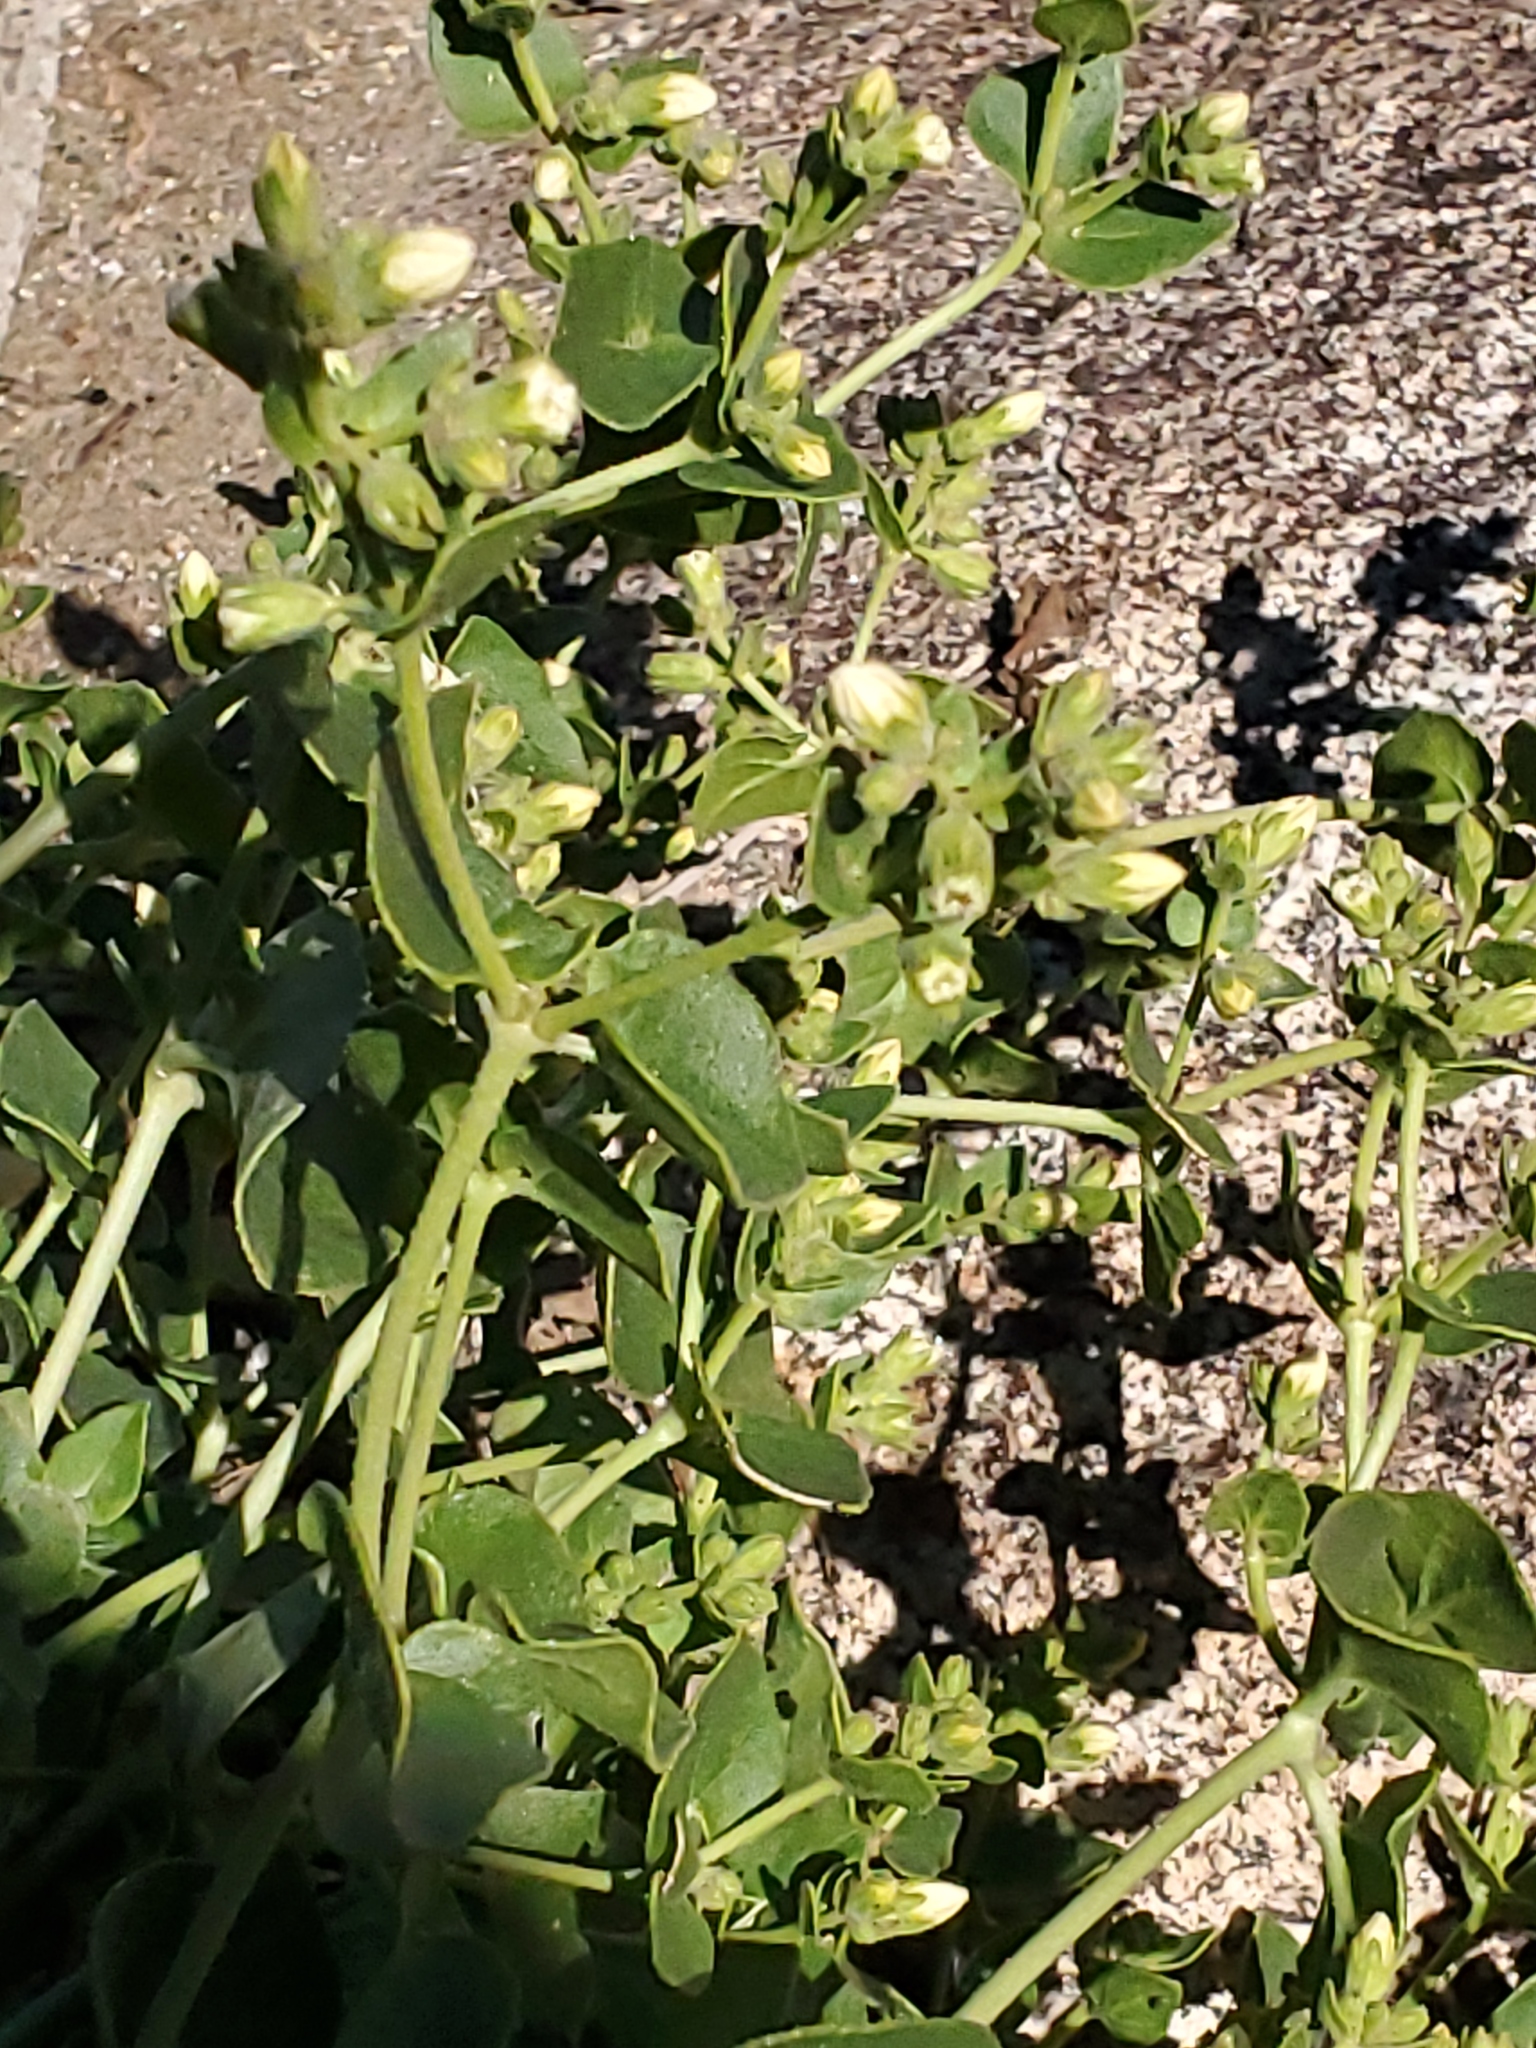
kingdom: Plantae
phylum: Tracheophyta
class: Magnoliopsida
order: Caryophyllales
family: Nyctaginaceae
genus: Mirabilis
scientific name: Mirabilis laevis
